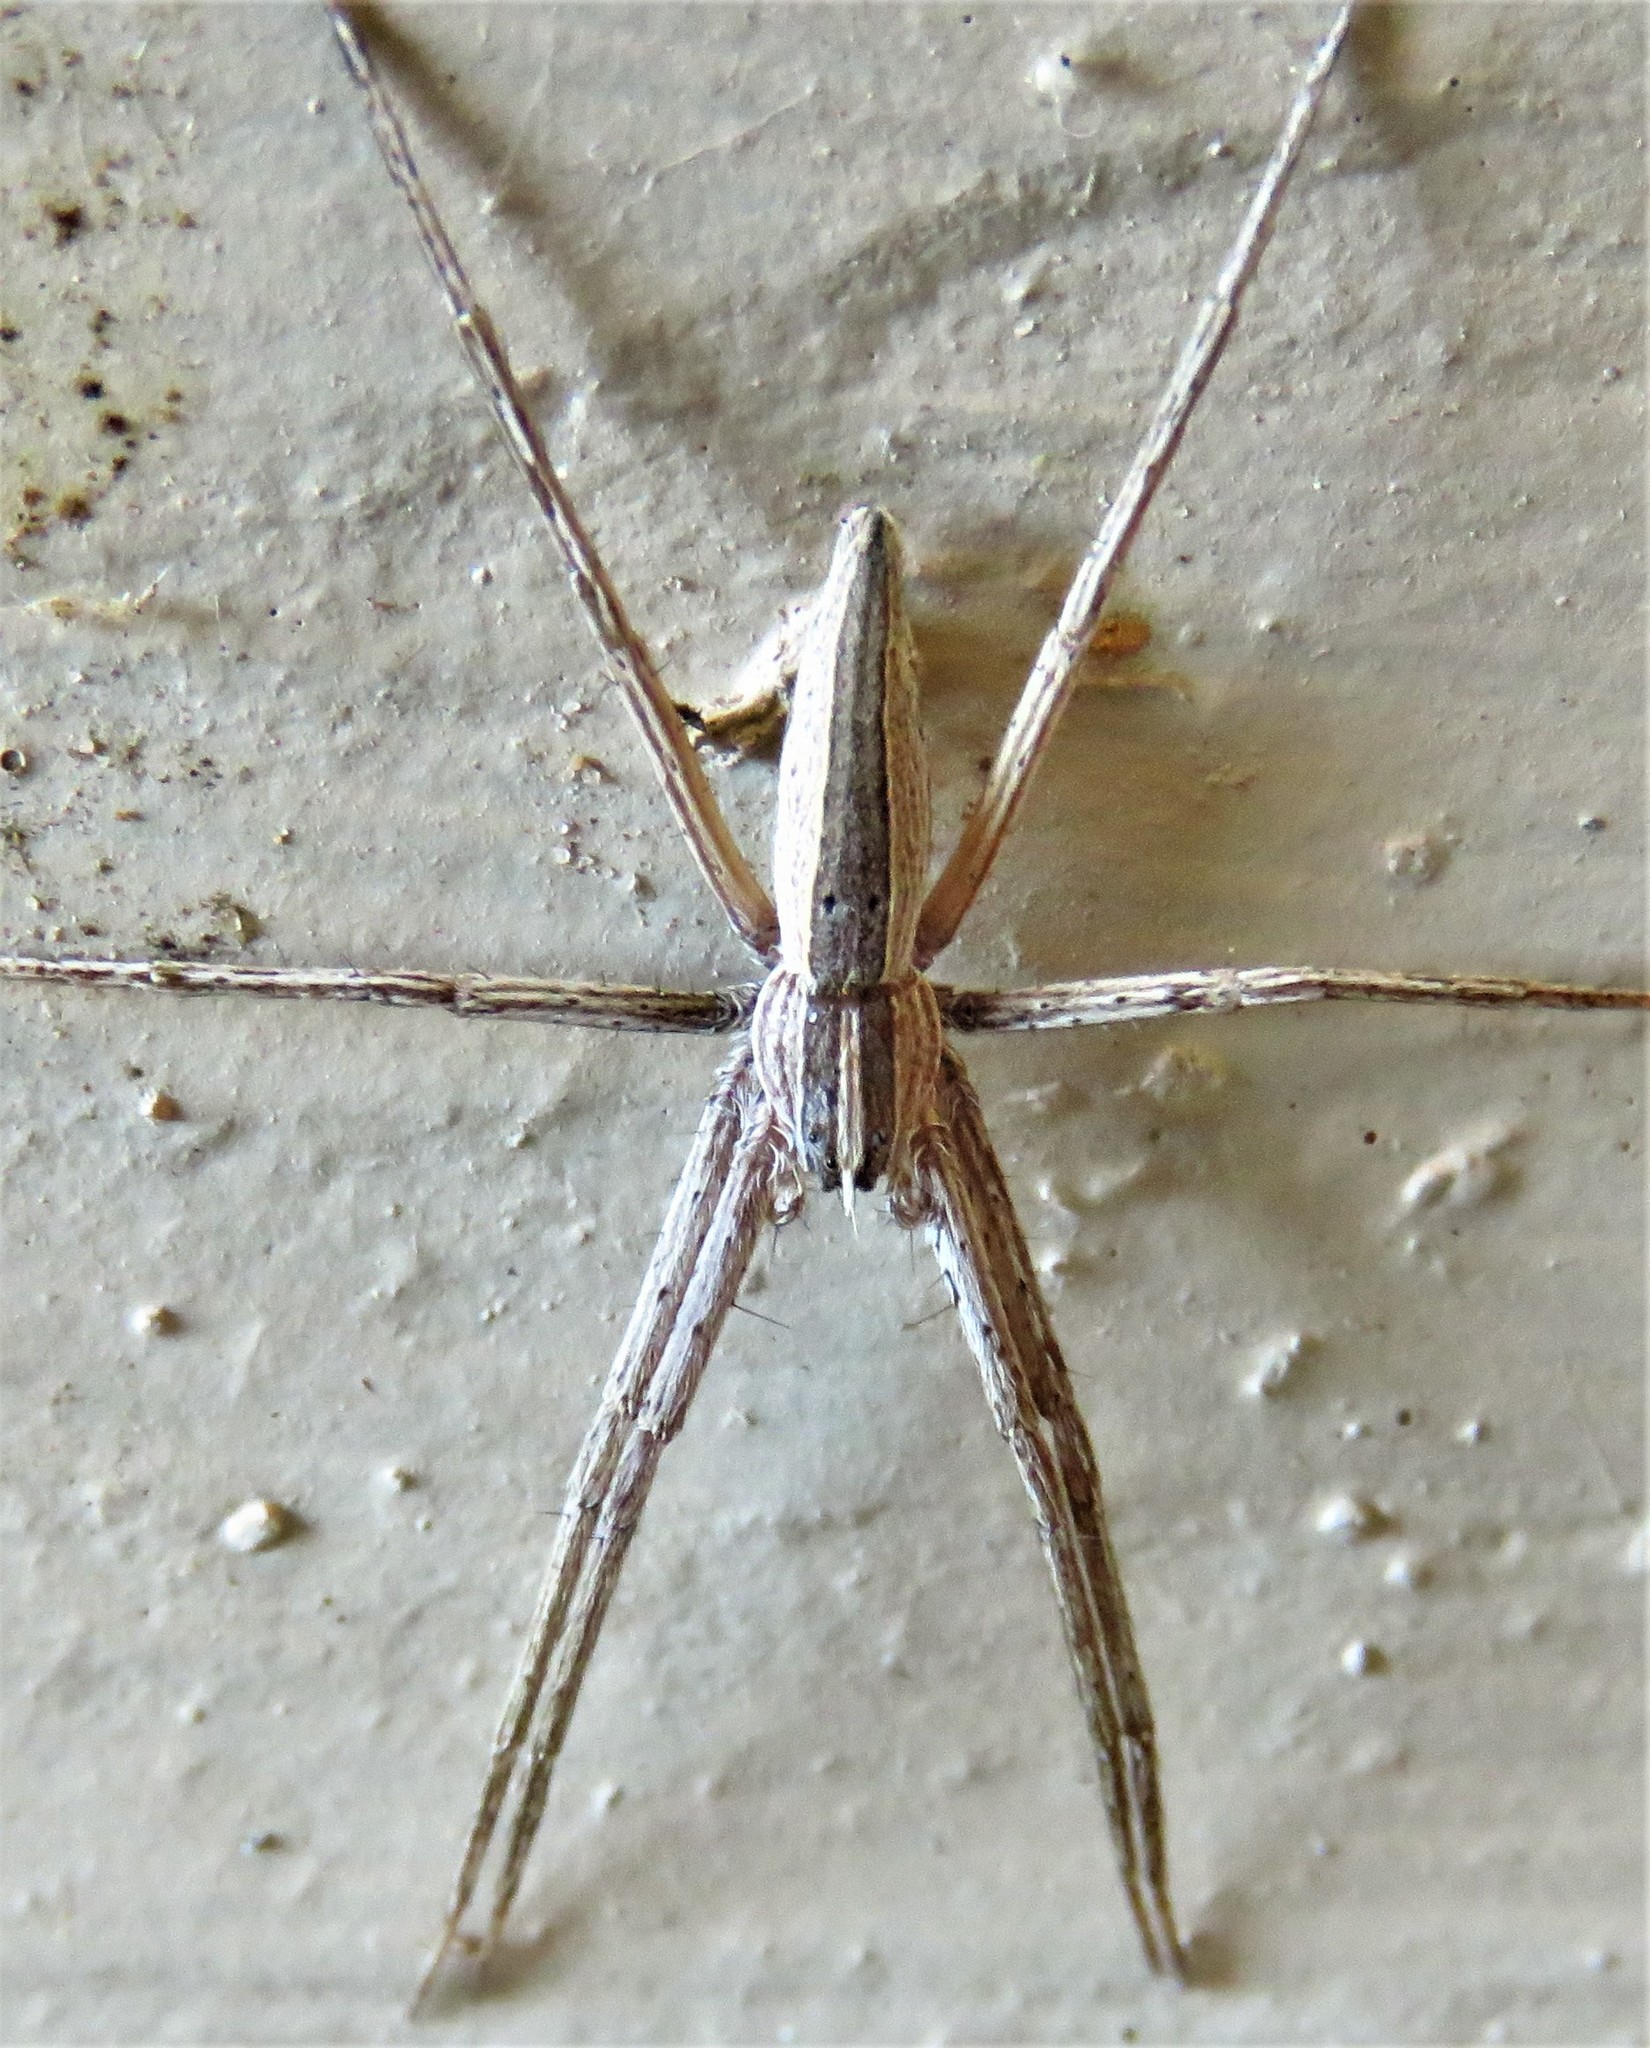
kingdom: Animalia
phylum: Arthropoda
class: Arachnida
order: Araneae
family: Pisauridae
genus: Pisaurina
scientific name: Pisaurina dubia
